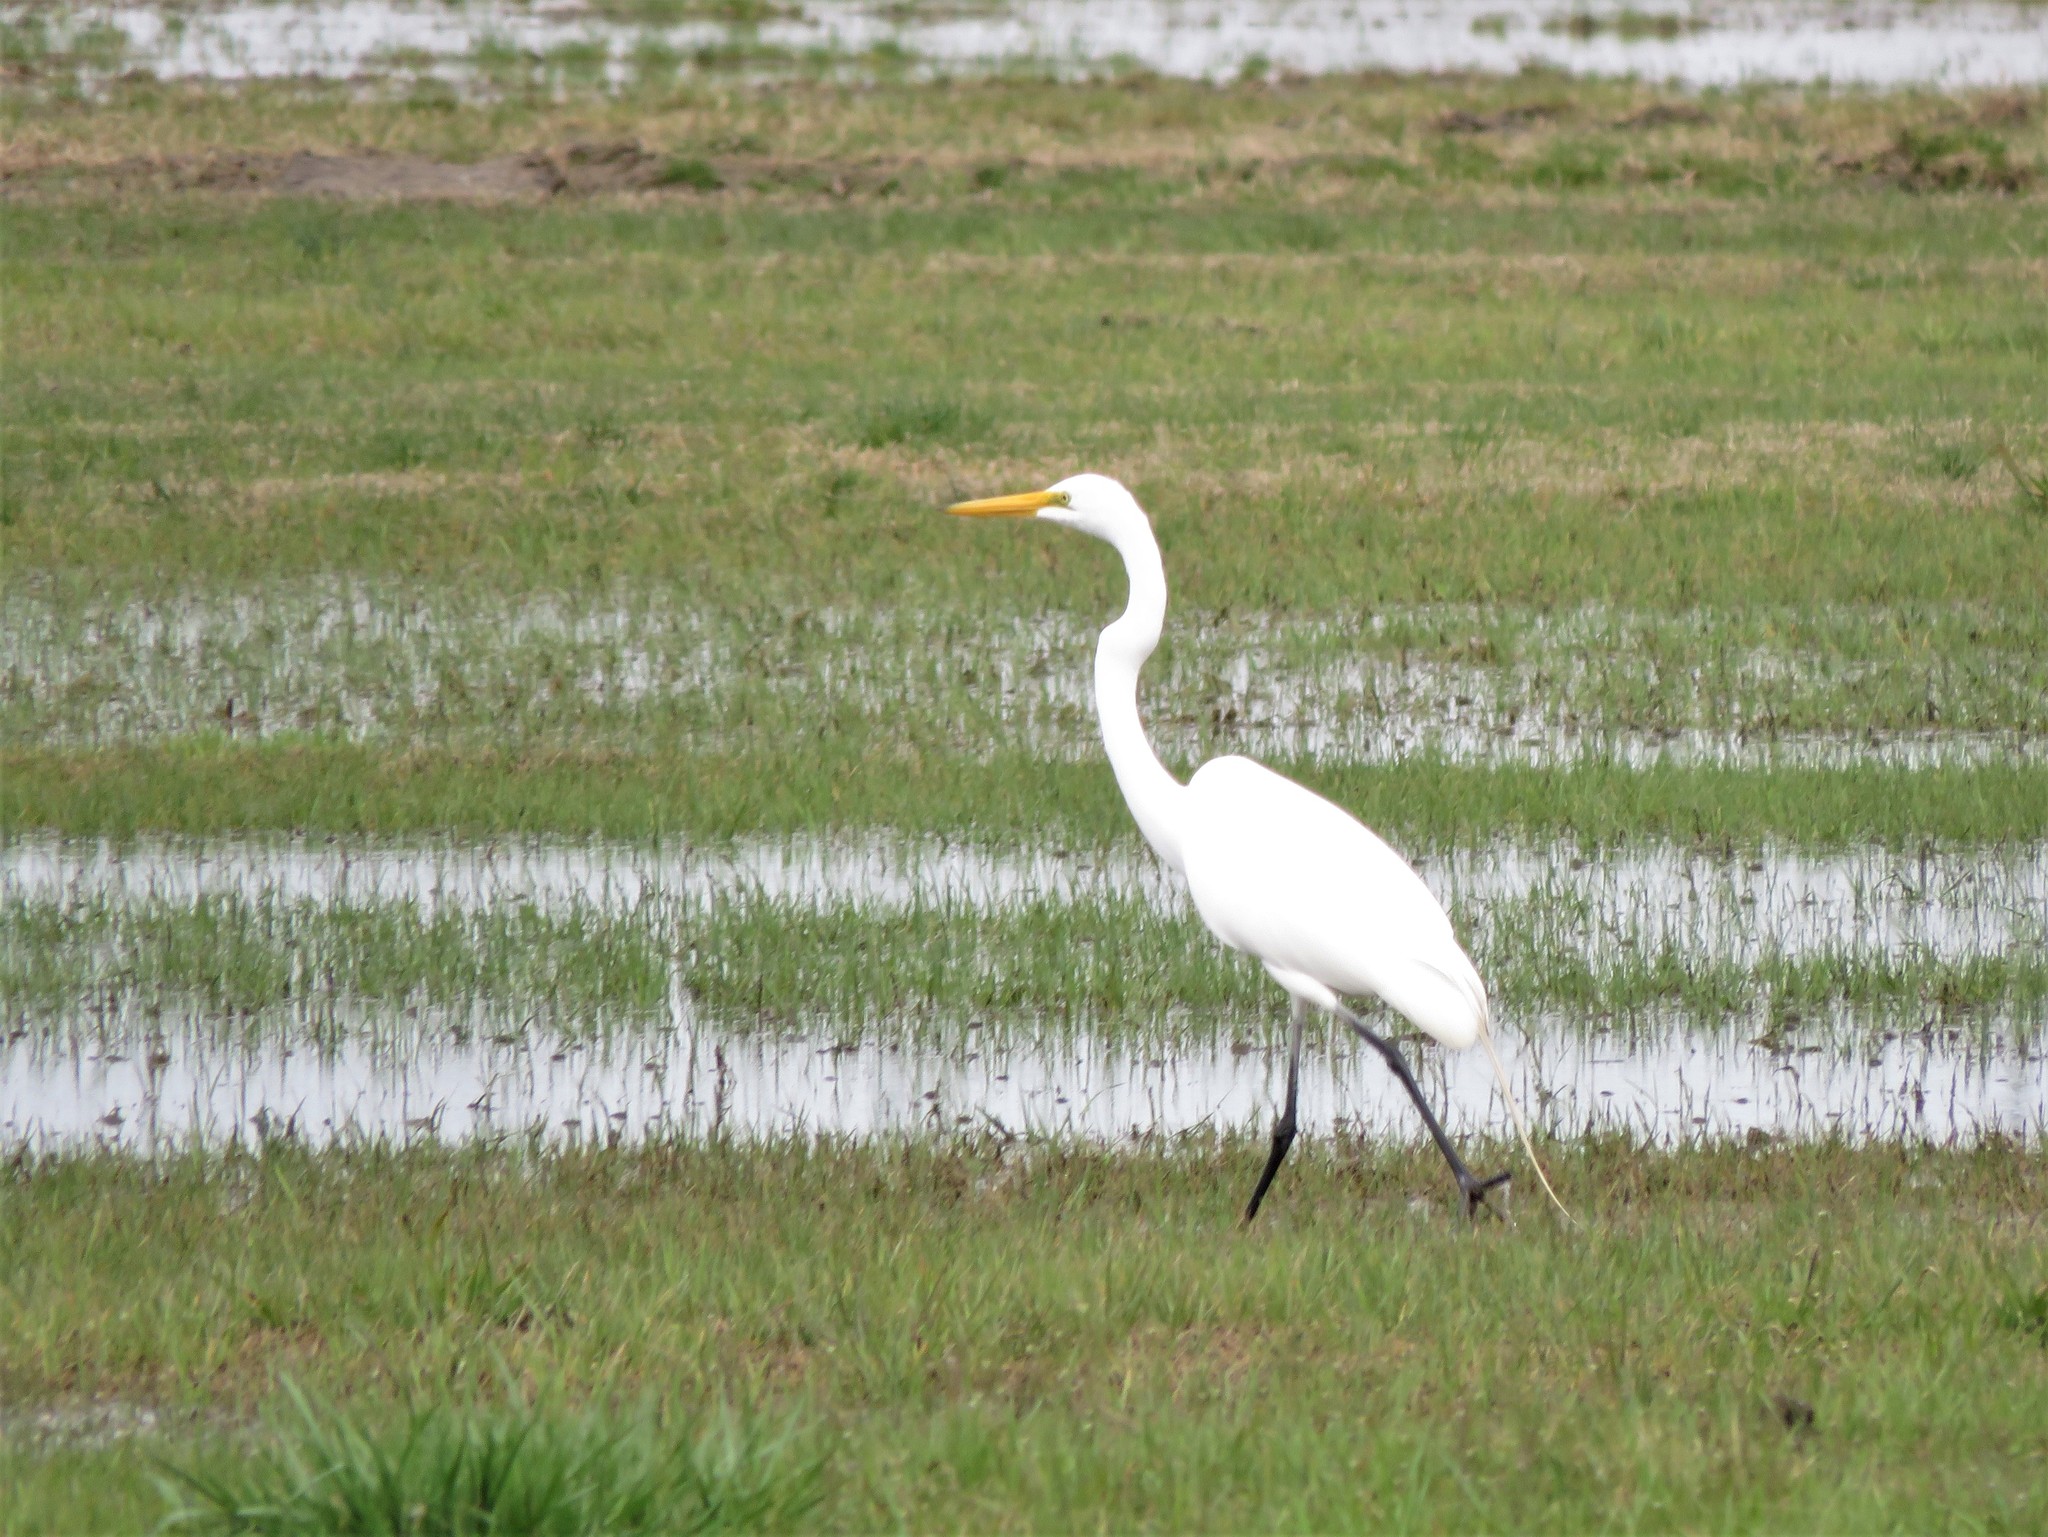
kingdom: Animalia
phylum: Chordata
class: Aves
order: Pelecaniformes
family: Ardeidae
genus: Ardea
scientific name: Ardea alba
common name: Great egret
